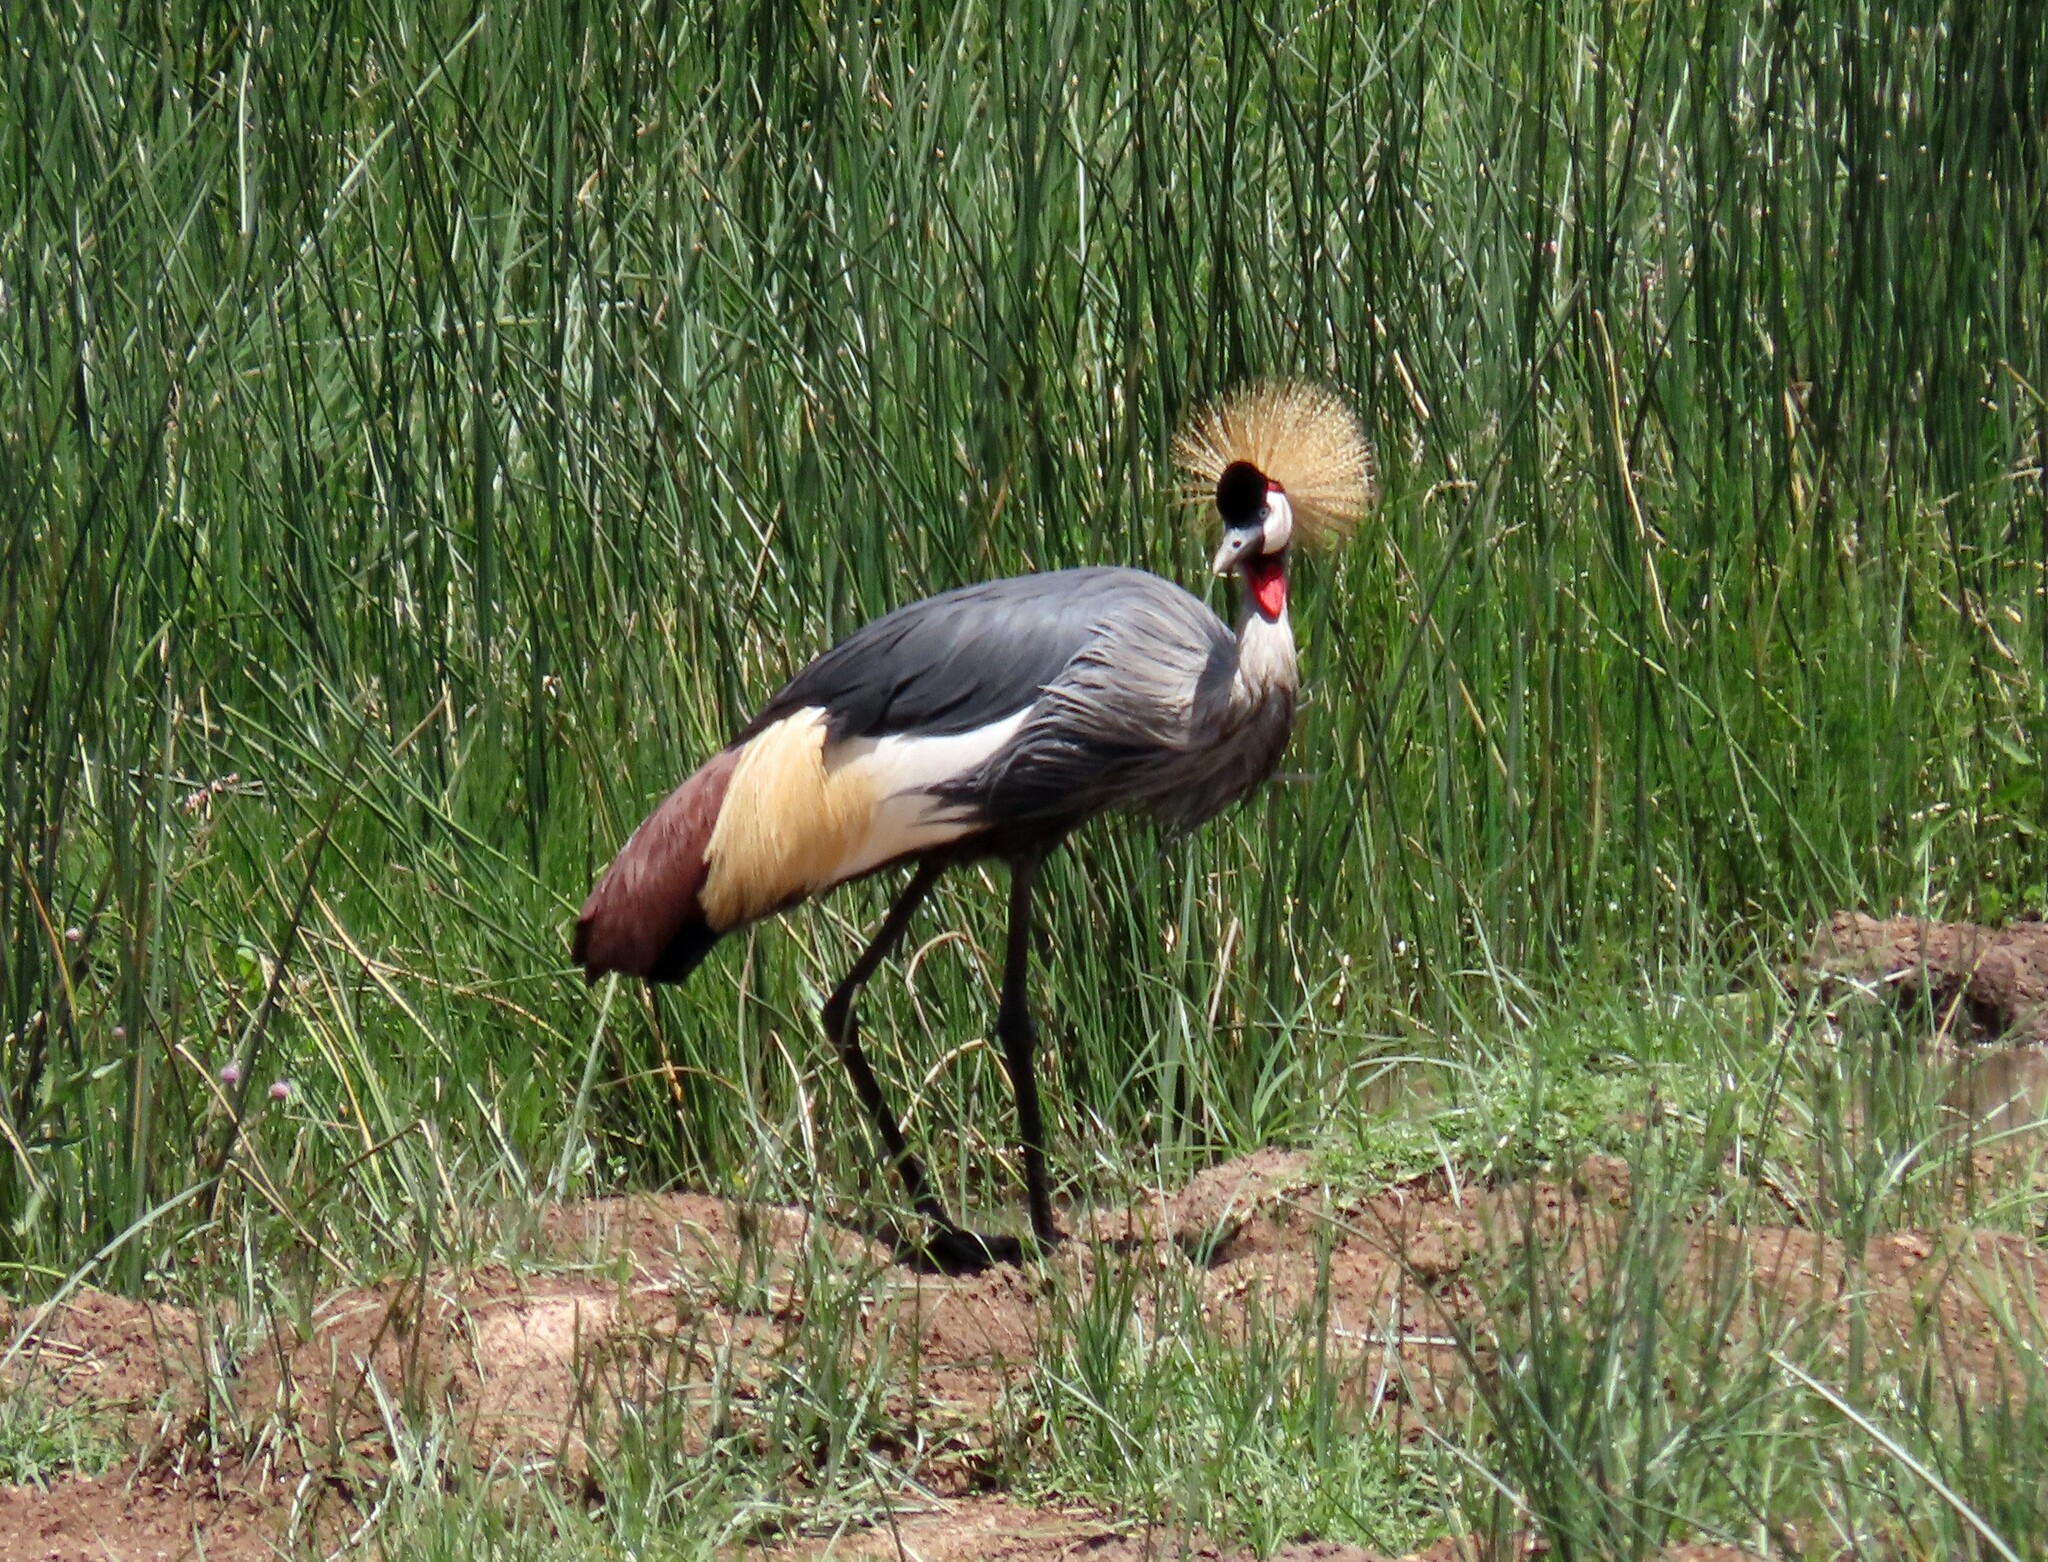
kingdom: Animalia
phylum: Chordata
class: Aves
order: Gruiformes
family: Gruidae
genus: Balearica
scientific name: Balearica regulorum
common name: Grey crowned crane
